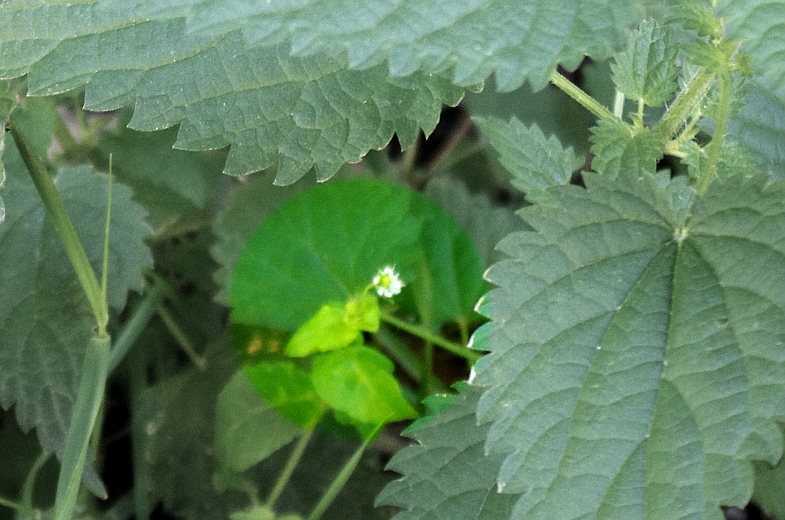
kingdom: Plantae
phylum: Tracheophyta
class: Magnoliopsida
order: Caryophyllales
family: Caryophyllaceae
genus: Stellaria
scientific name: Stellaria media
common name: Common chickweed
